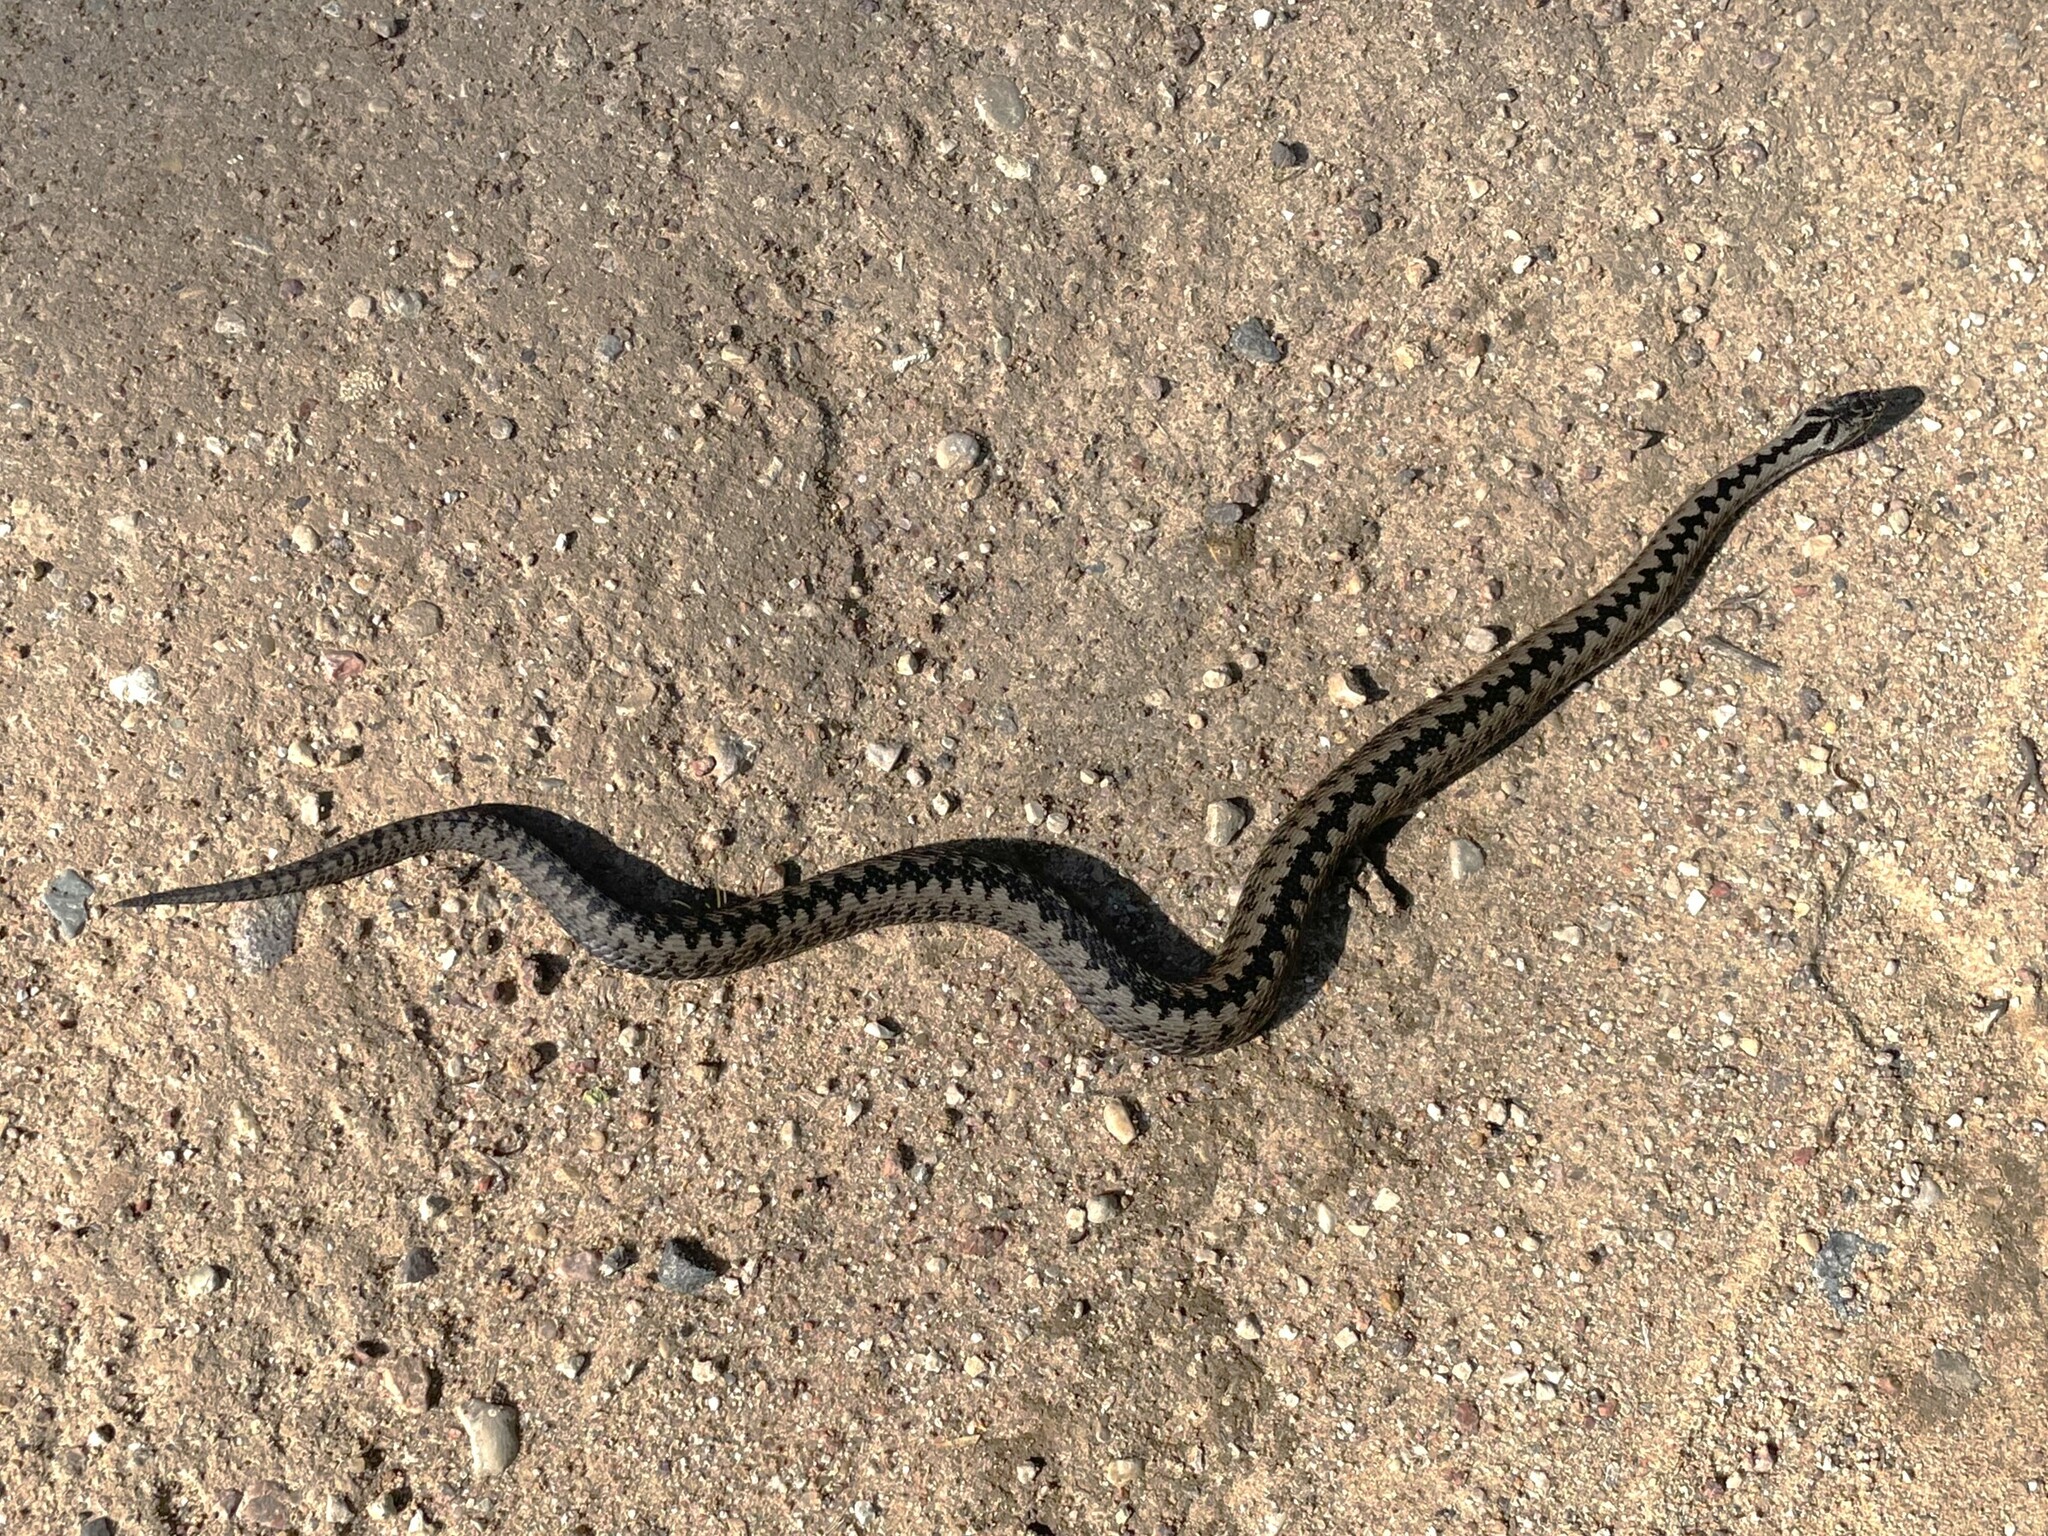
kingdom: Animalia
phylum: Chordata
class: Squamata
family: Viperidae
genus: Vipera
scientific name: Vipera berus
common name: Adder
